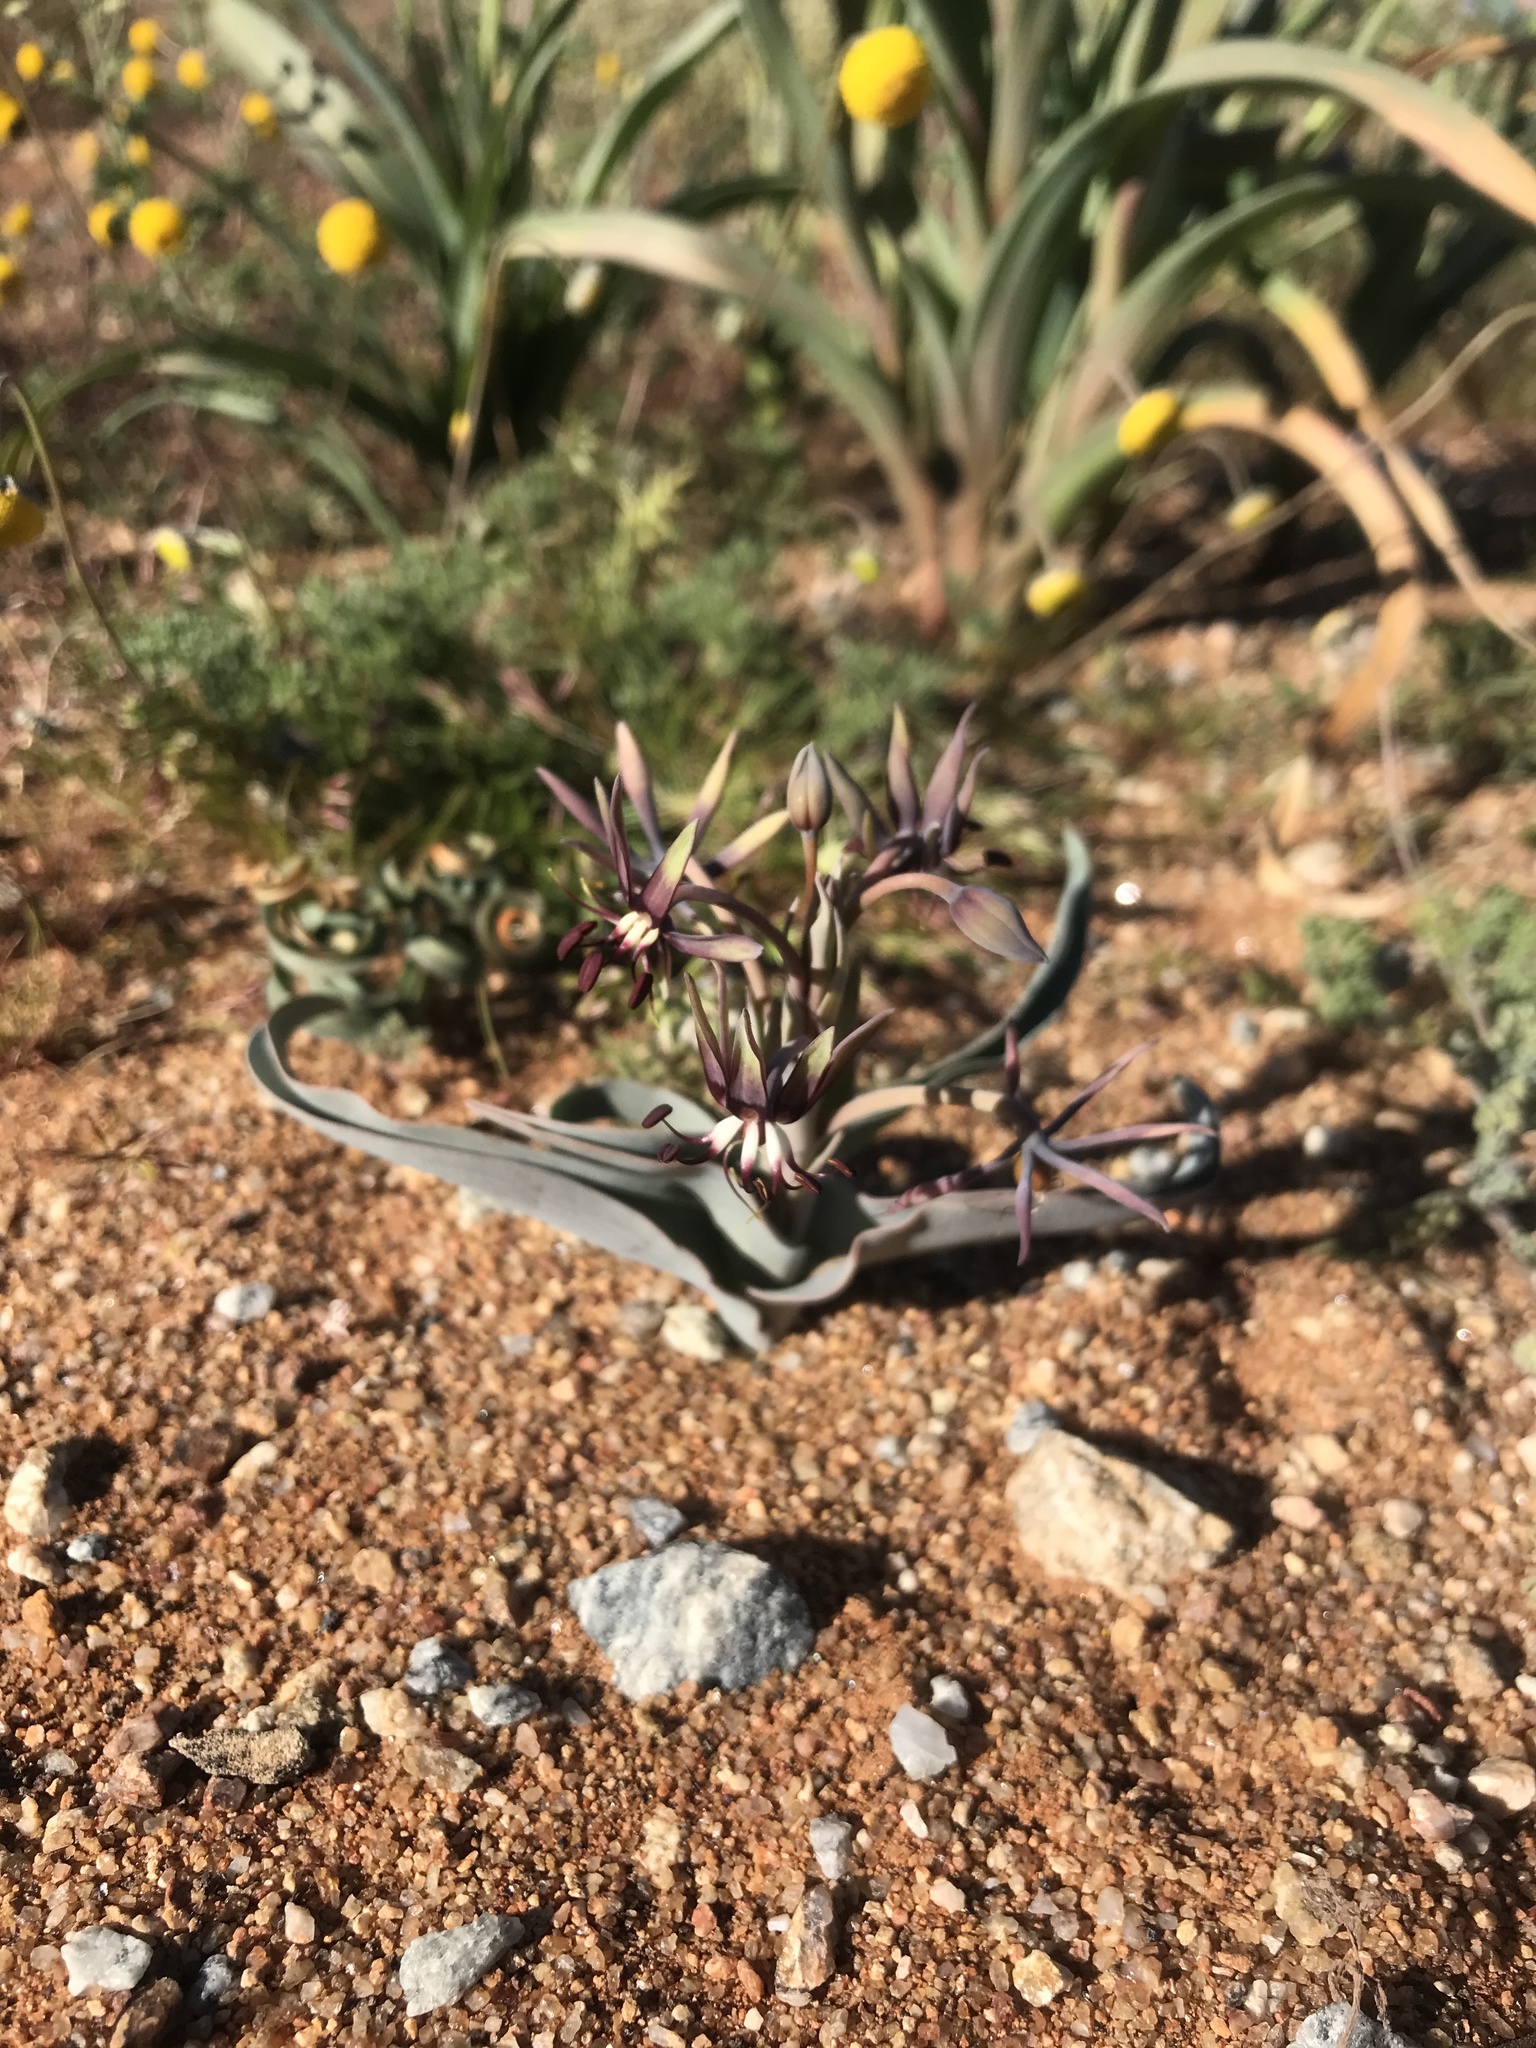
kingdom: Plantae
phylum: Tracheophyta
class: Liliopsida
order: Liliales
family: Colchicaceae
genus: Ornithoglossum
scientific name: Ornithoglossum vulgare
